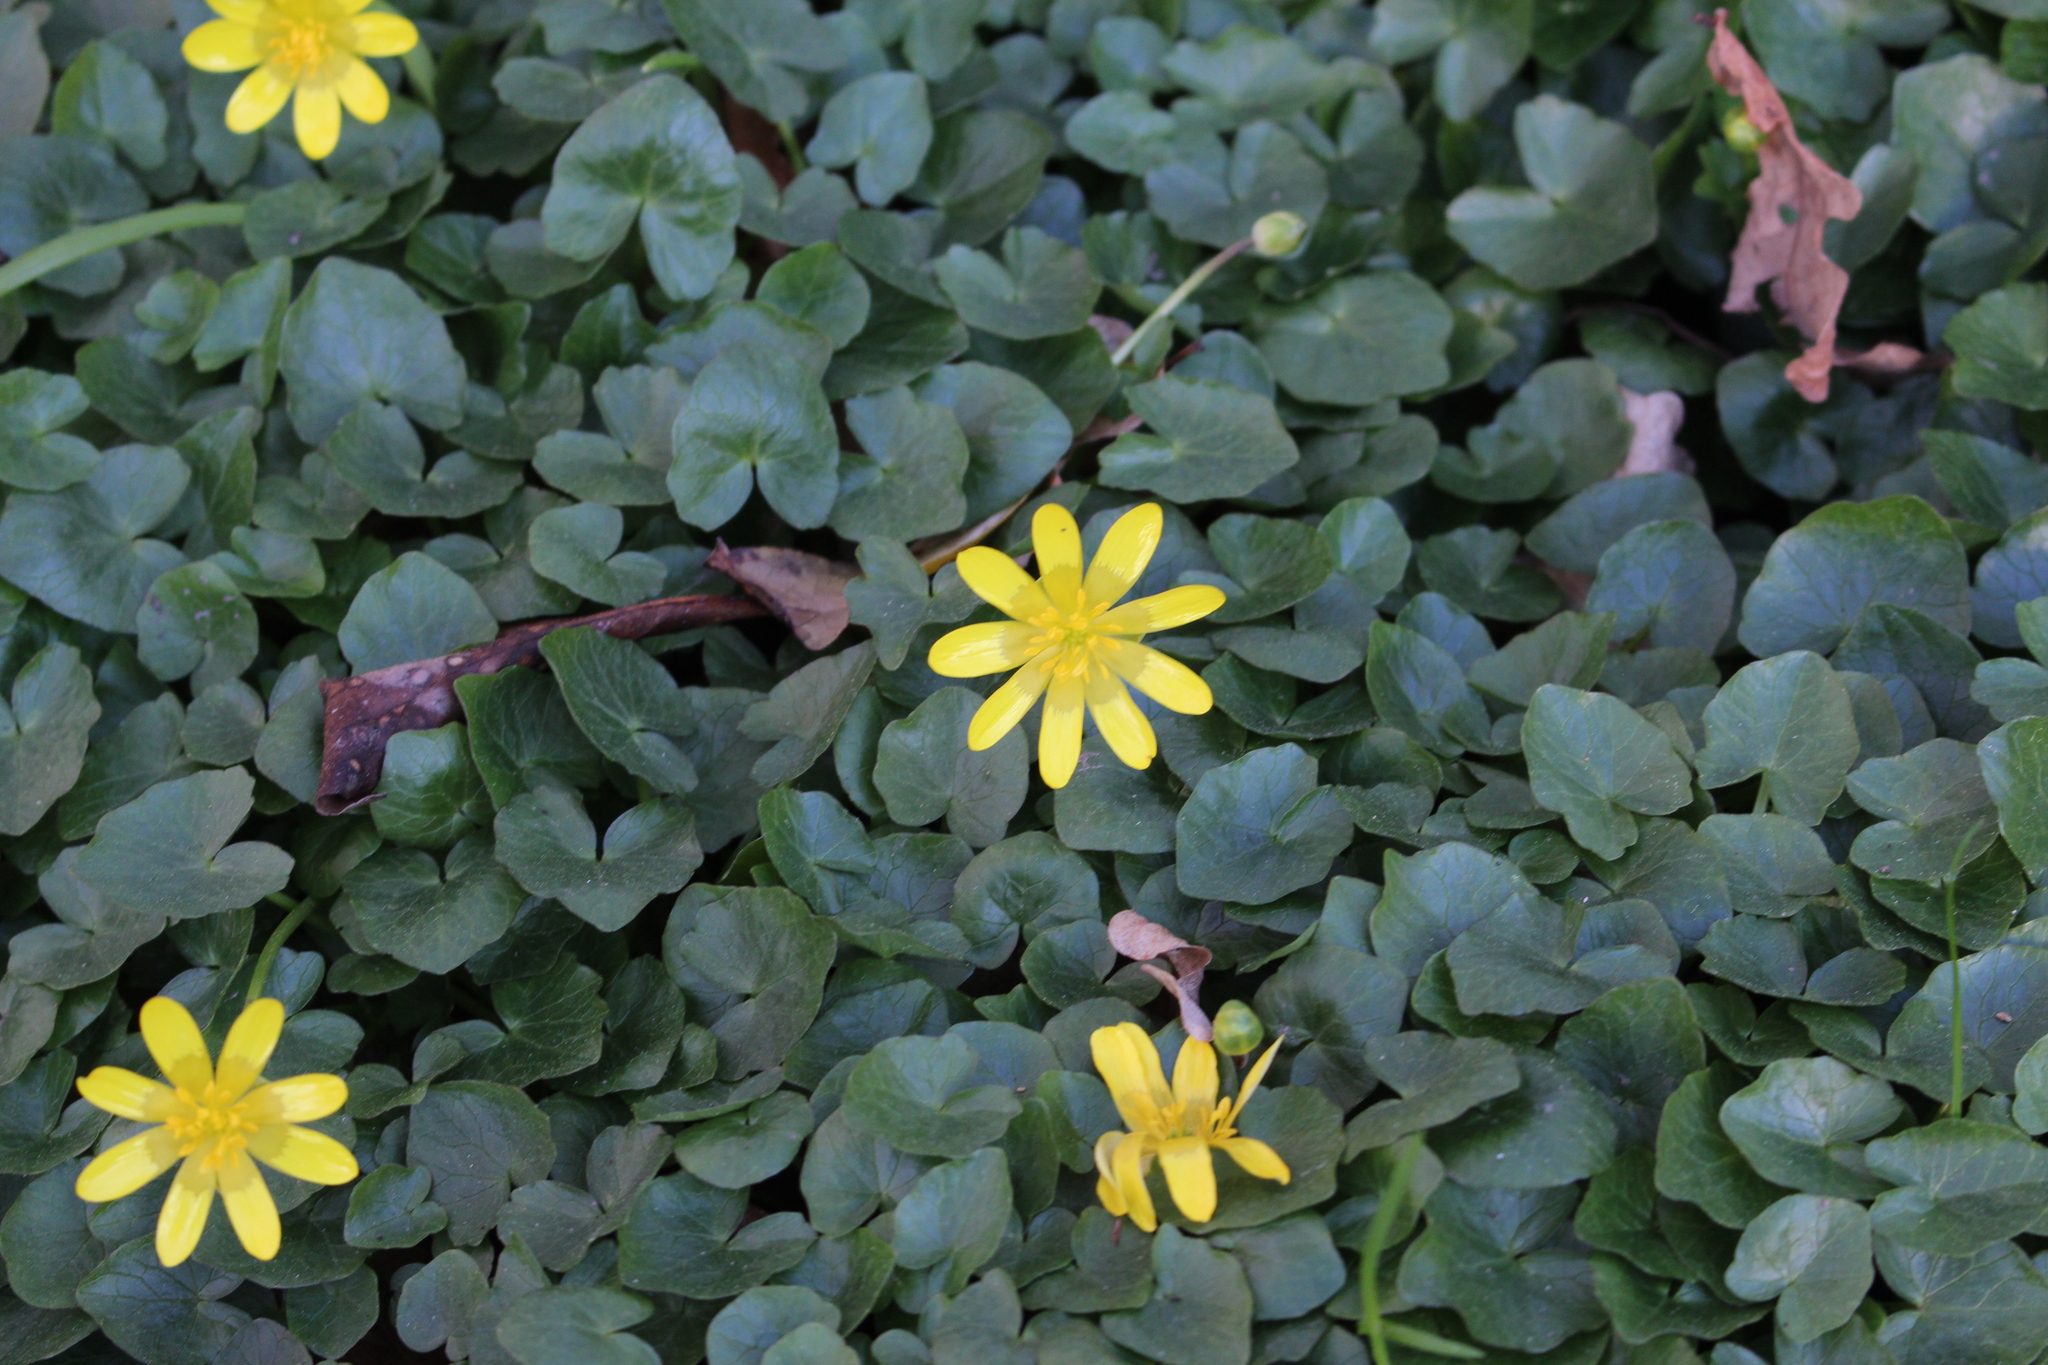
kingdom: Plantae
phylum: Tracheophyta
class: Magnoliopsida
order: Ranunculales
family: Ranunculaceae
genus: Ficaria
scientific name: Ficaria verna
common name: Lesser celandine
